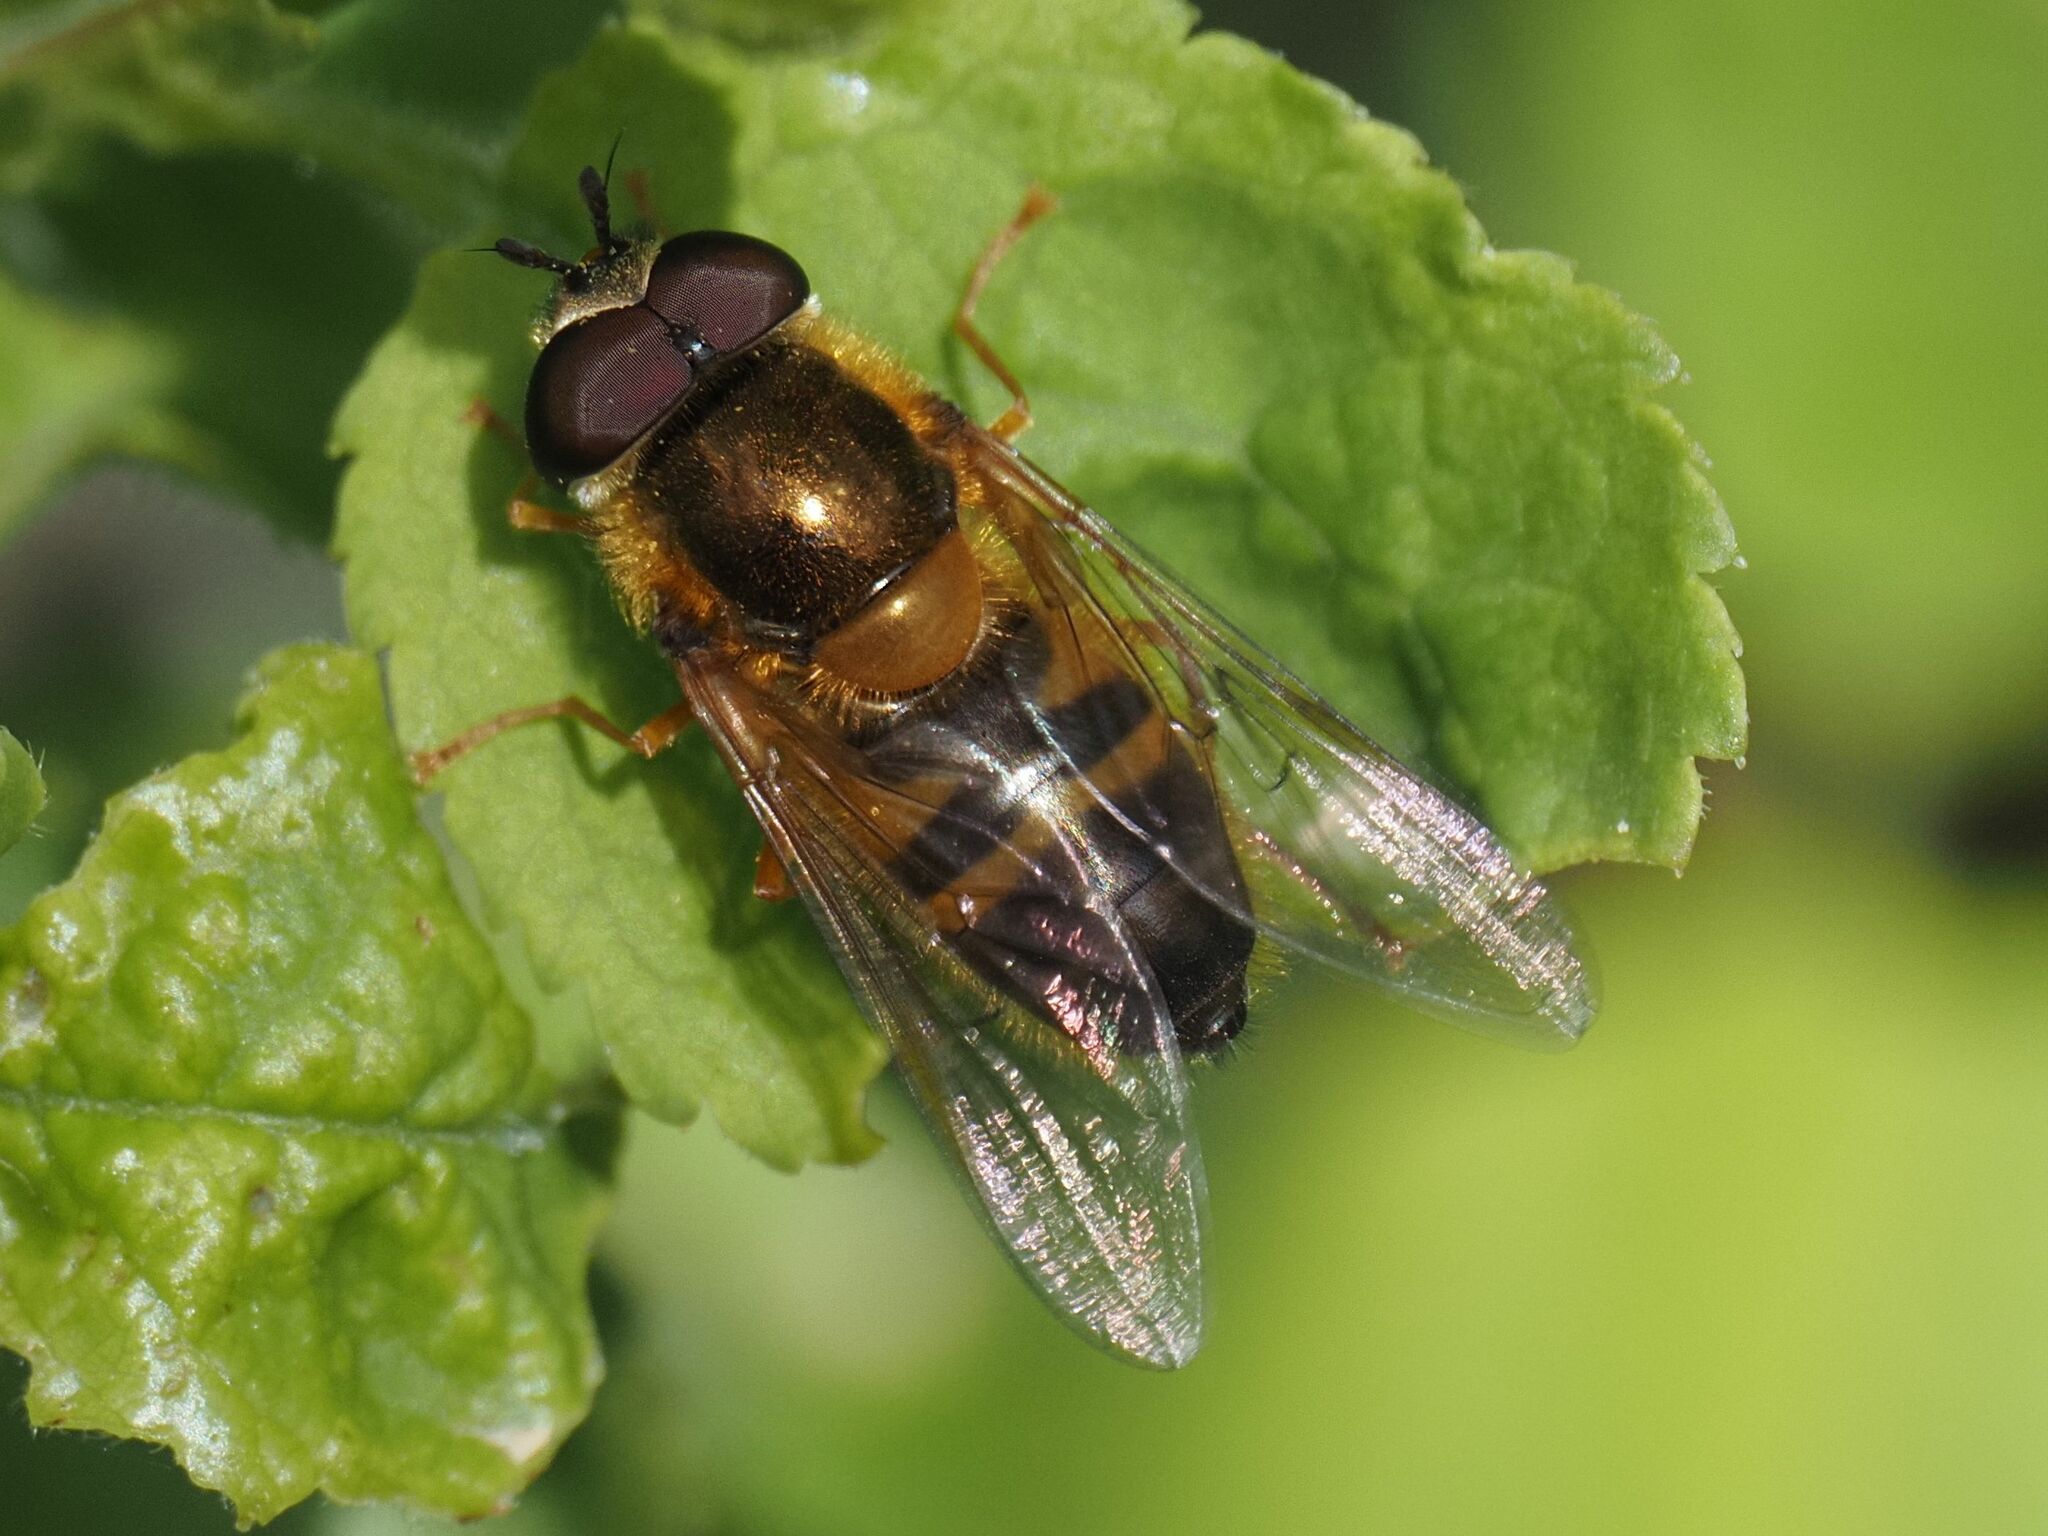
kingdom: Animalia
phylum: Arthropoda
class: Insecta
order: Diptera
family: Syrphidae
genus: Epistrophe
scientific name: Epistrophe eligans
